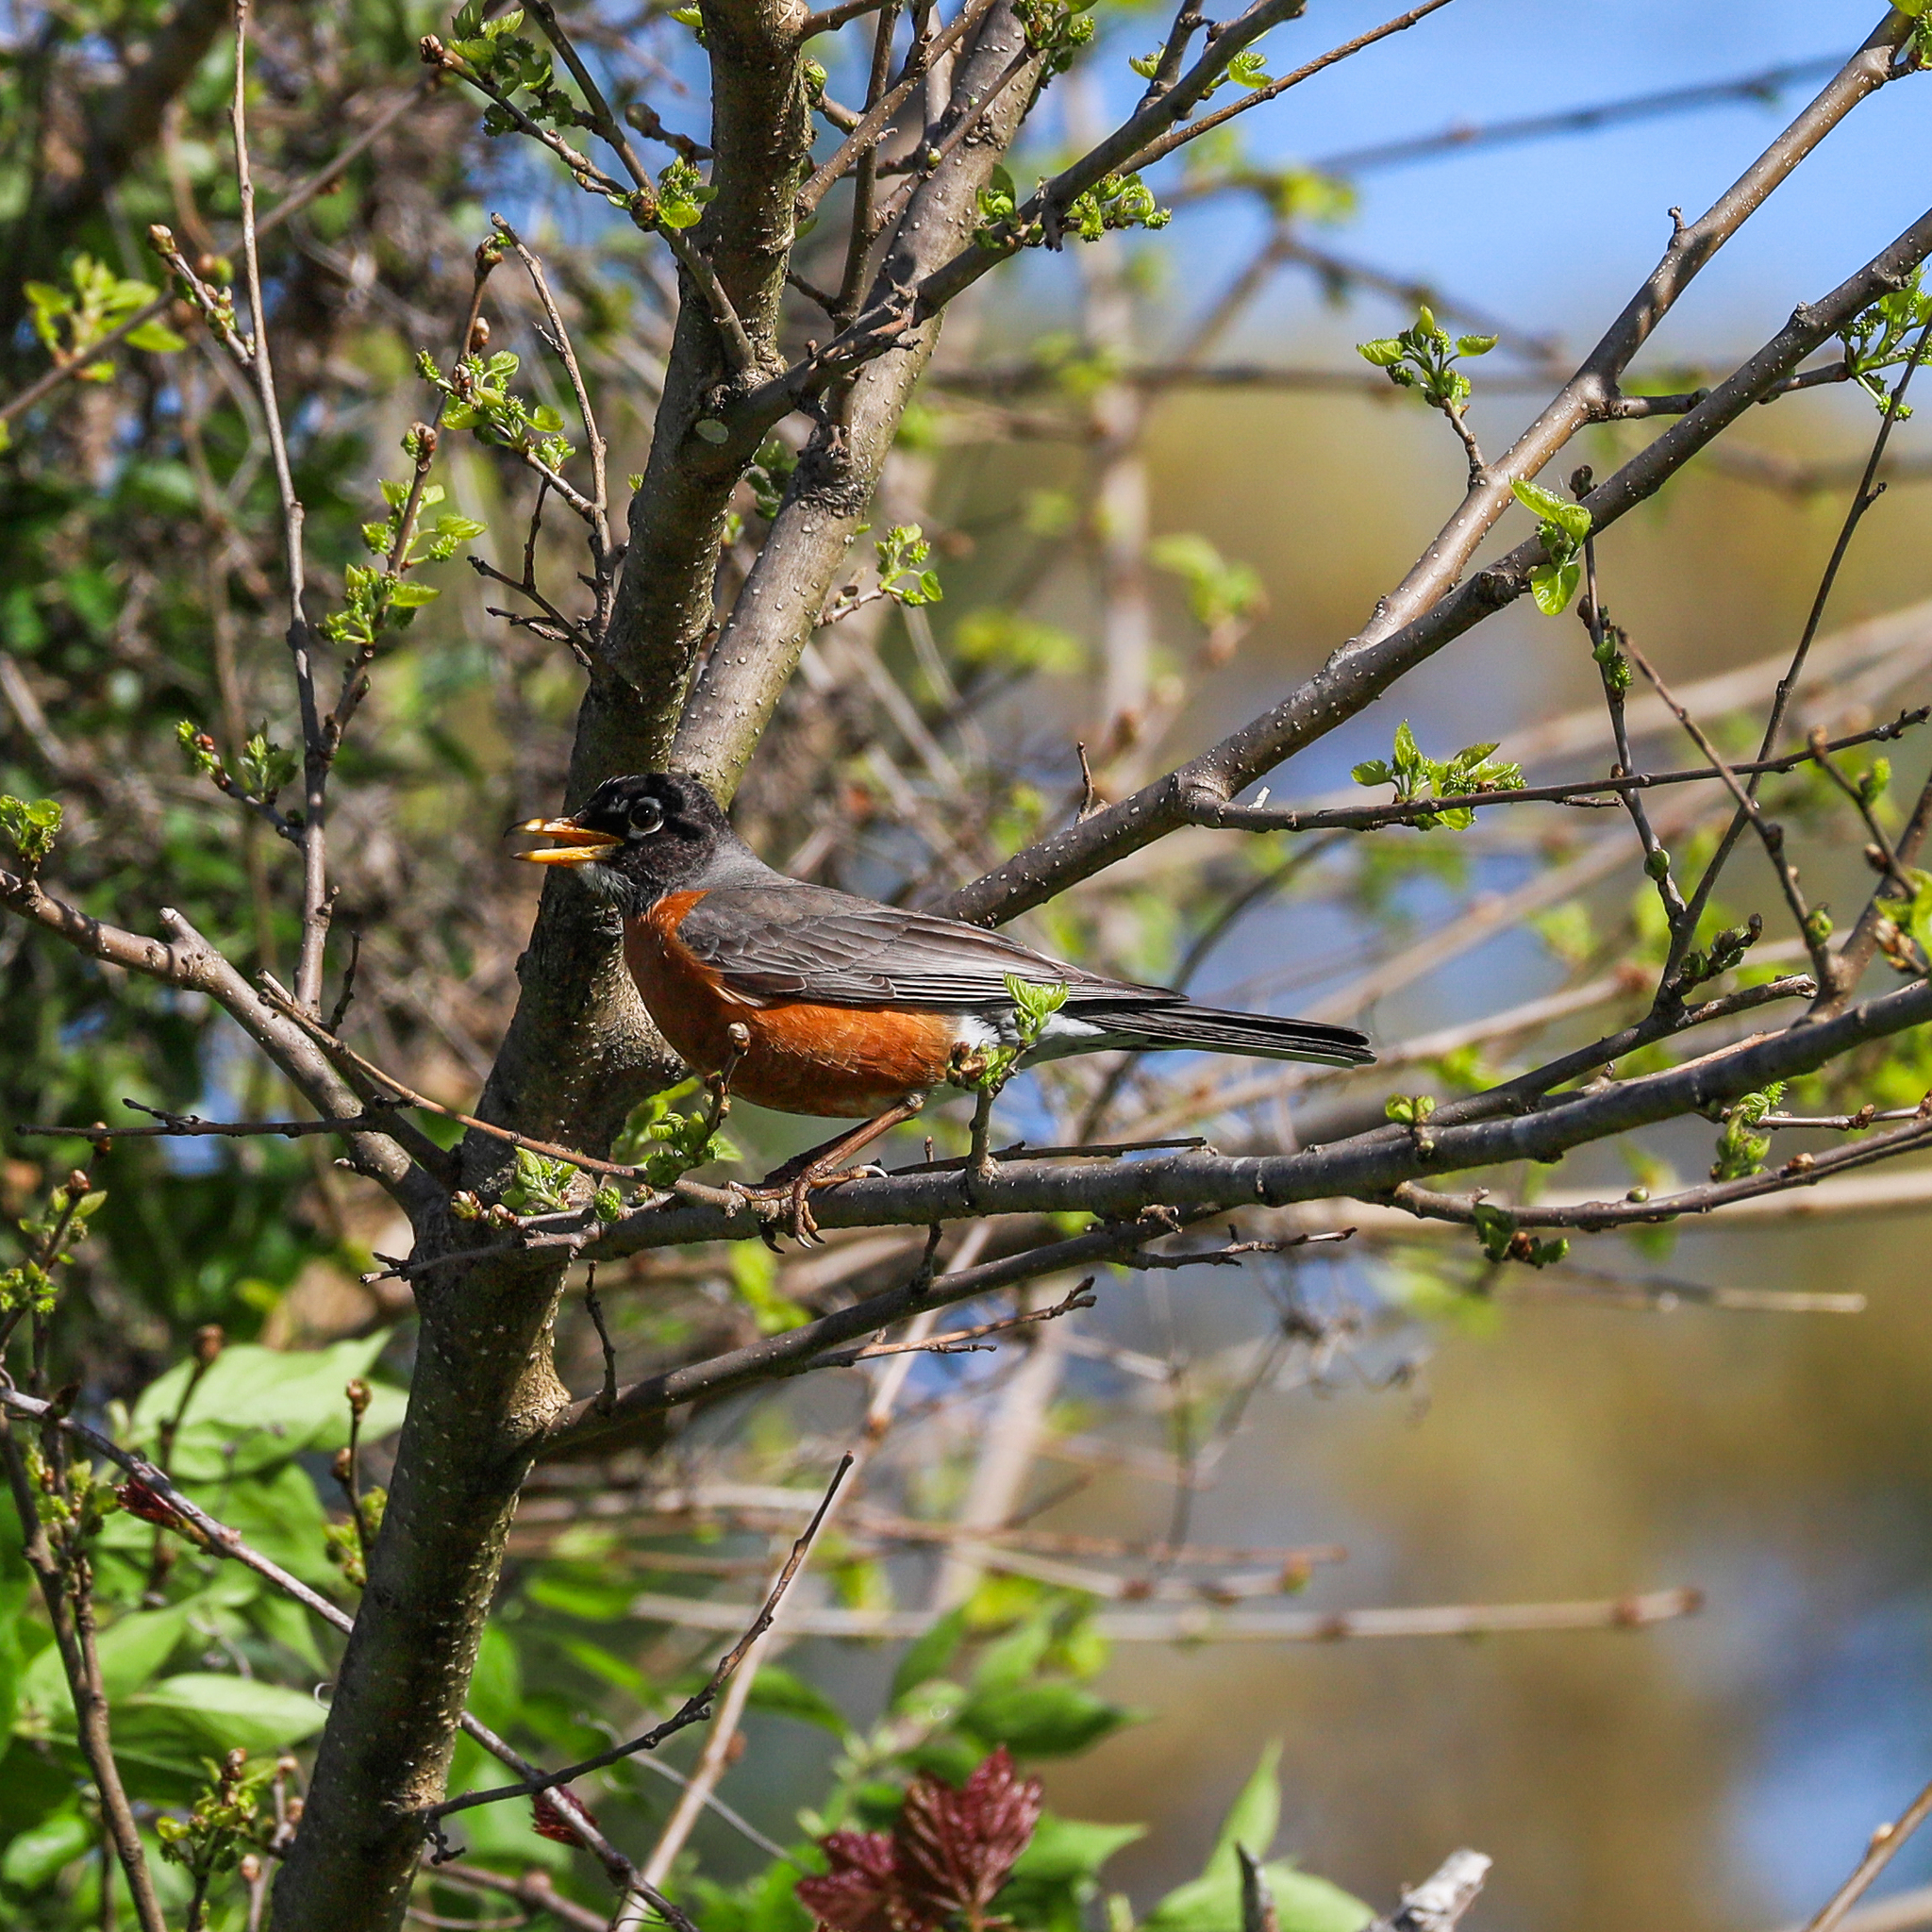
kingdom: Animalia
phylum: Chordata
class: Aves
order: Passeriformes
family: Turdidae
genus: Turdus
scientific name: Turdus migratorius
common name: American robin
